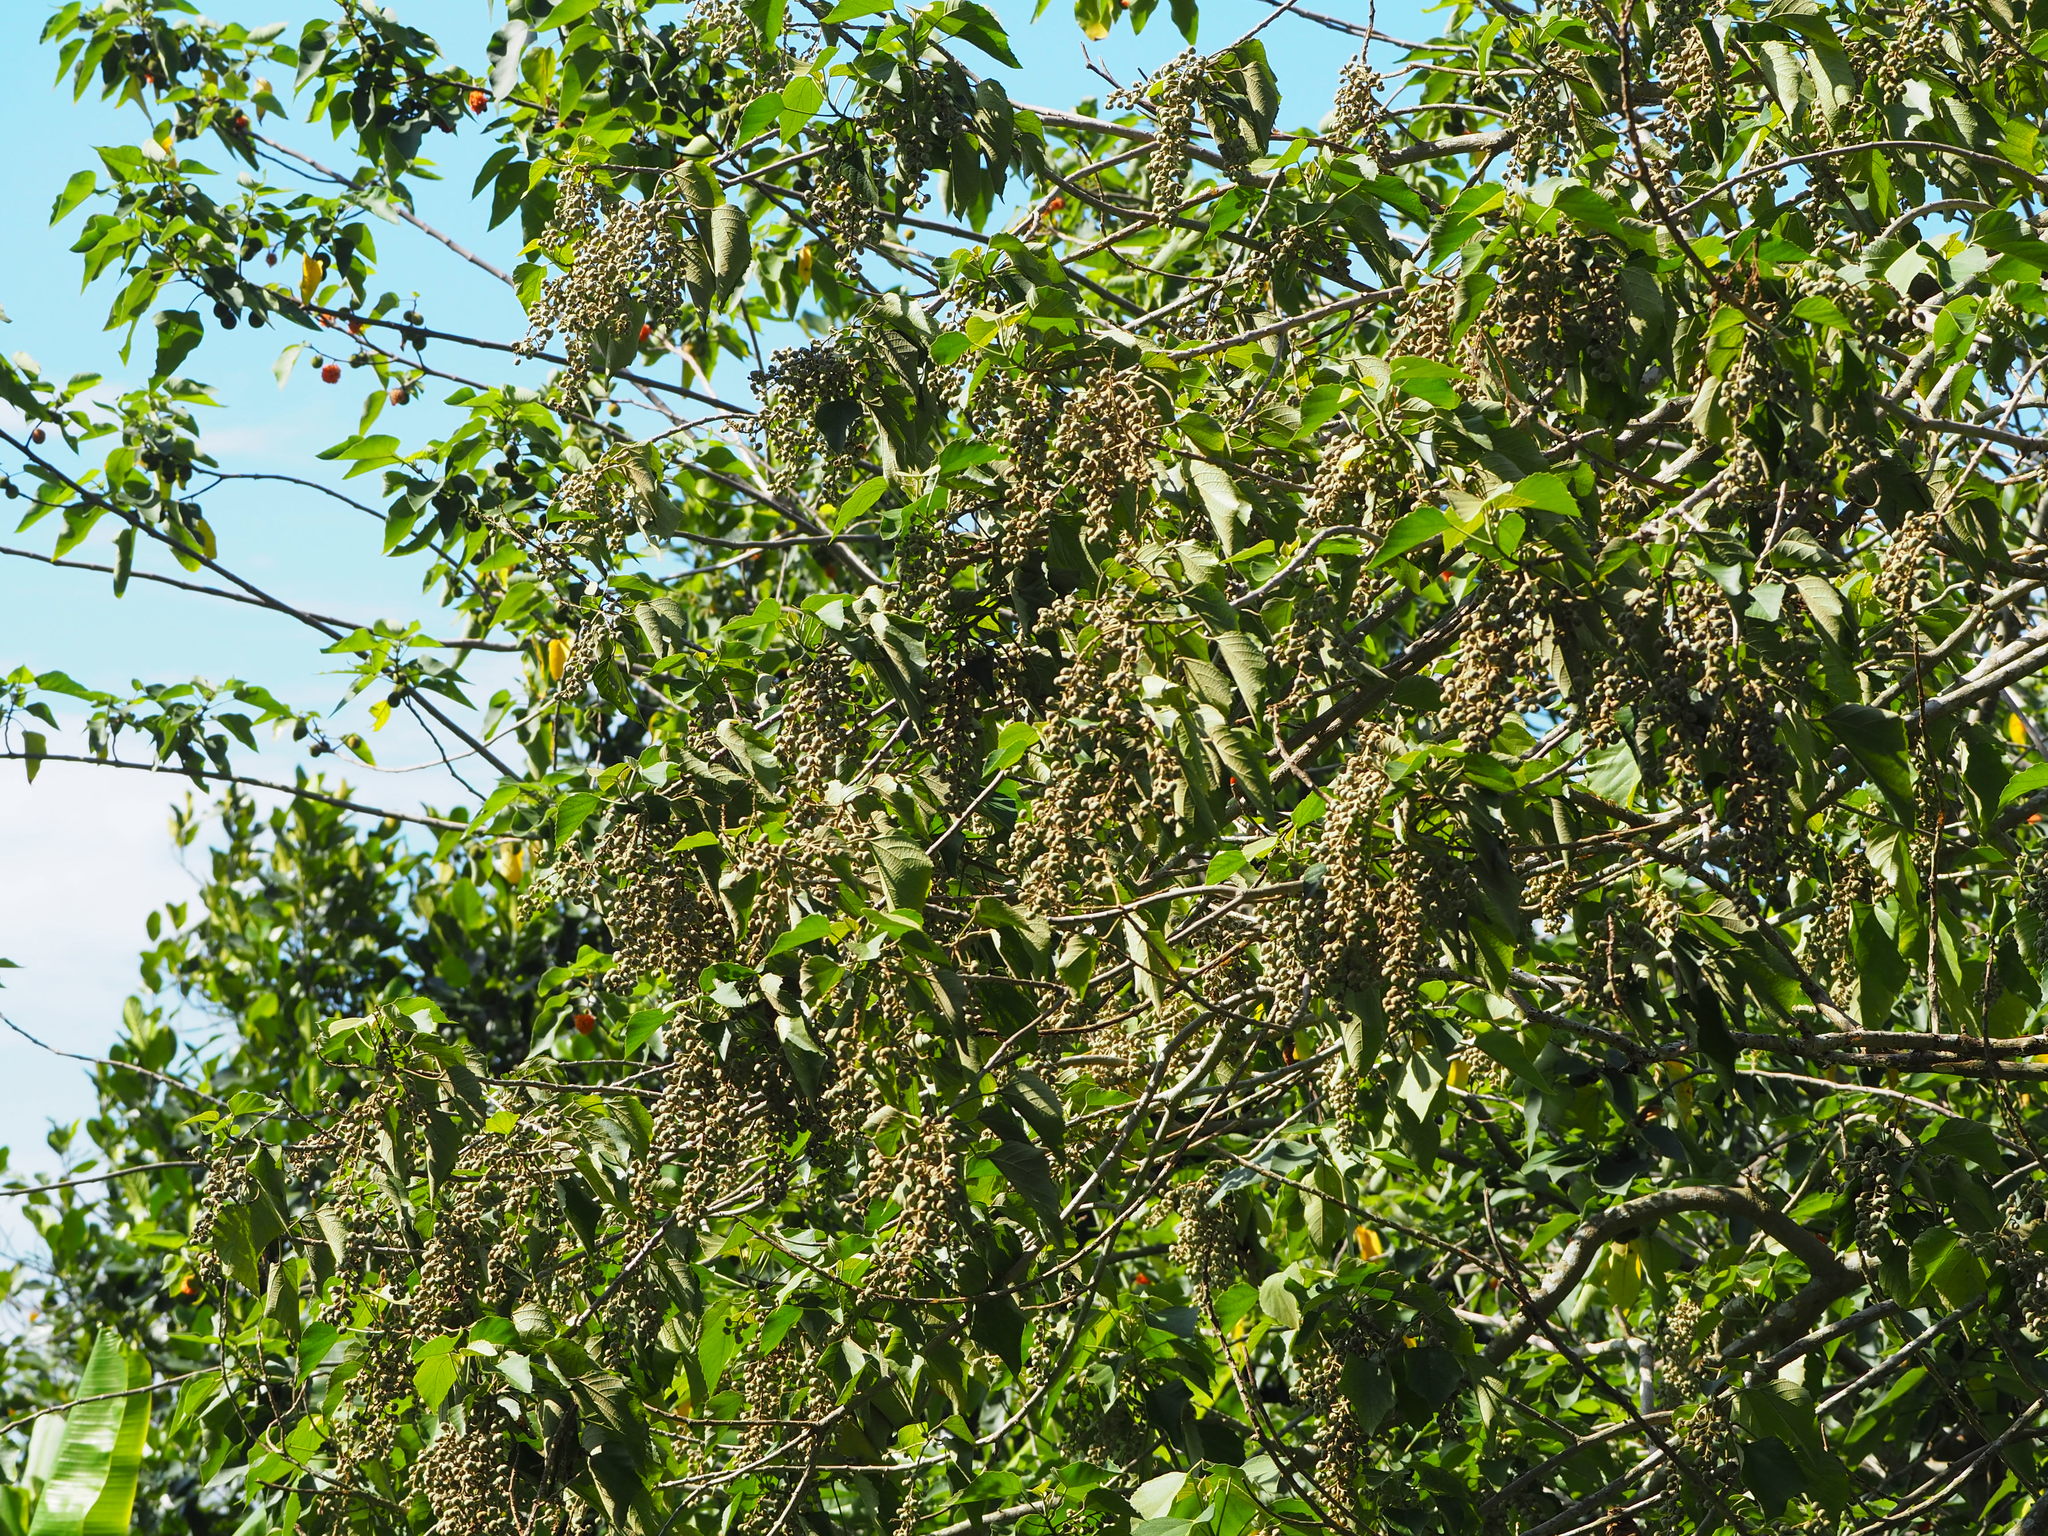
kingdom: Plantae
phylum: Tracheophyta
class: Magnoliopsida
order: Malpighiales
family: Euphorbiaceae
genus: Melanolepis
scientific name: Melanolepis multiglandulosa
